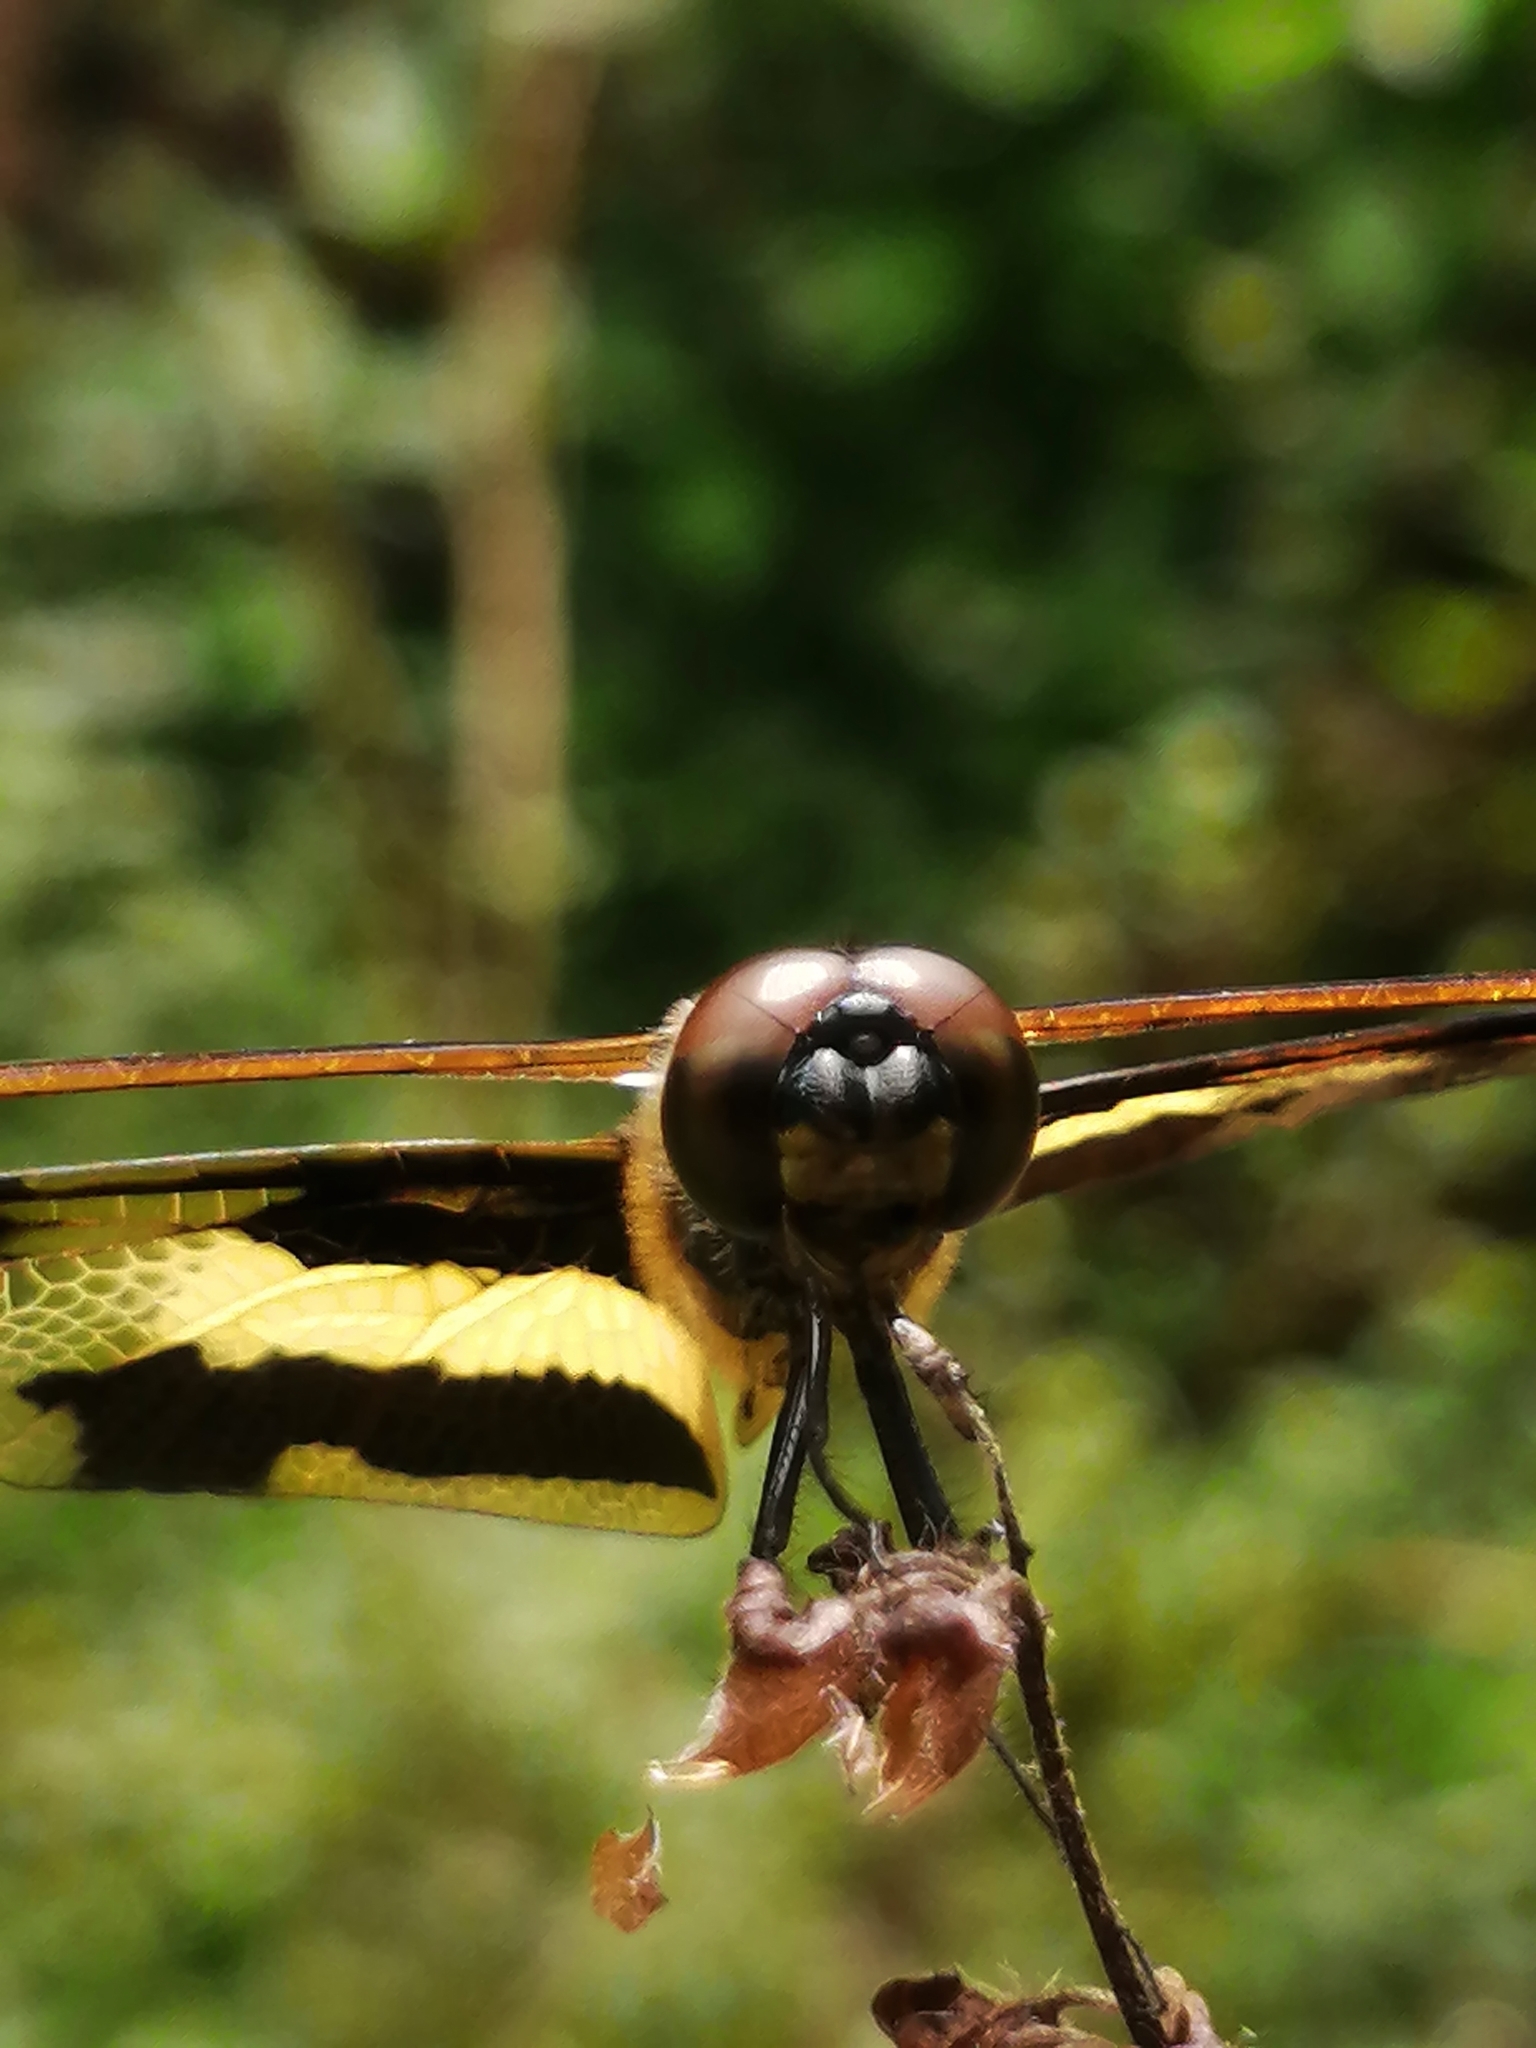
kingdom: Animalia
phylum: Arthropoda
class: Insecta
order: Odonata
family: Libellulidae
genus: Rhyothemis
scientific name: Rhyothemis variegata
